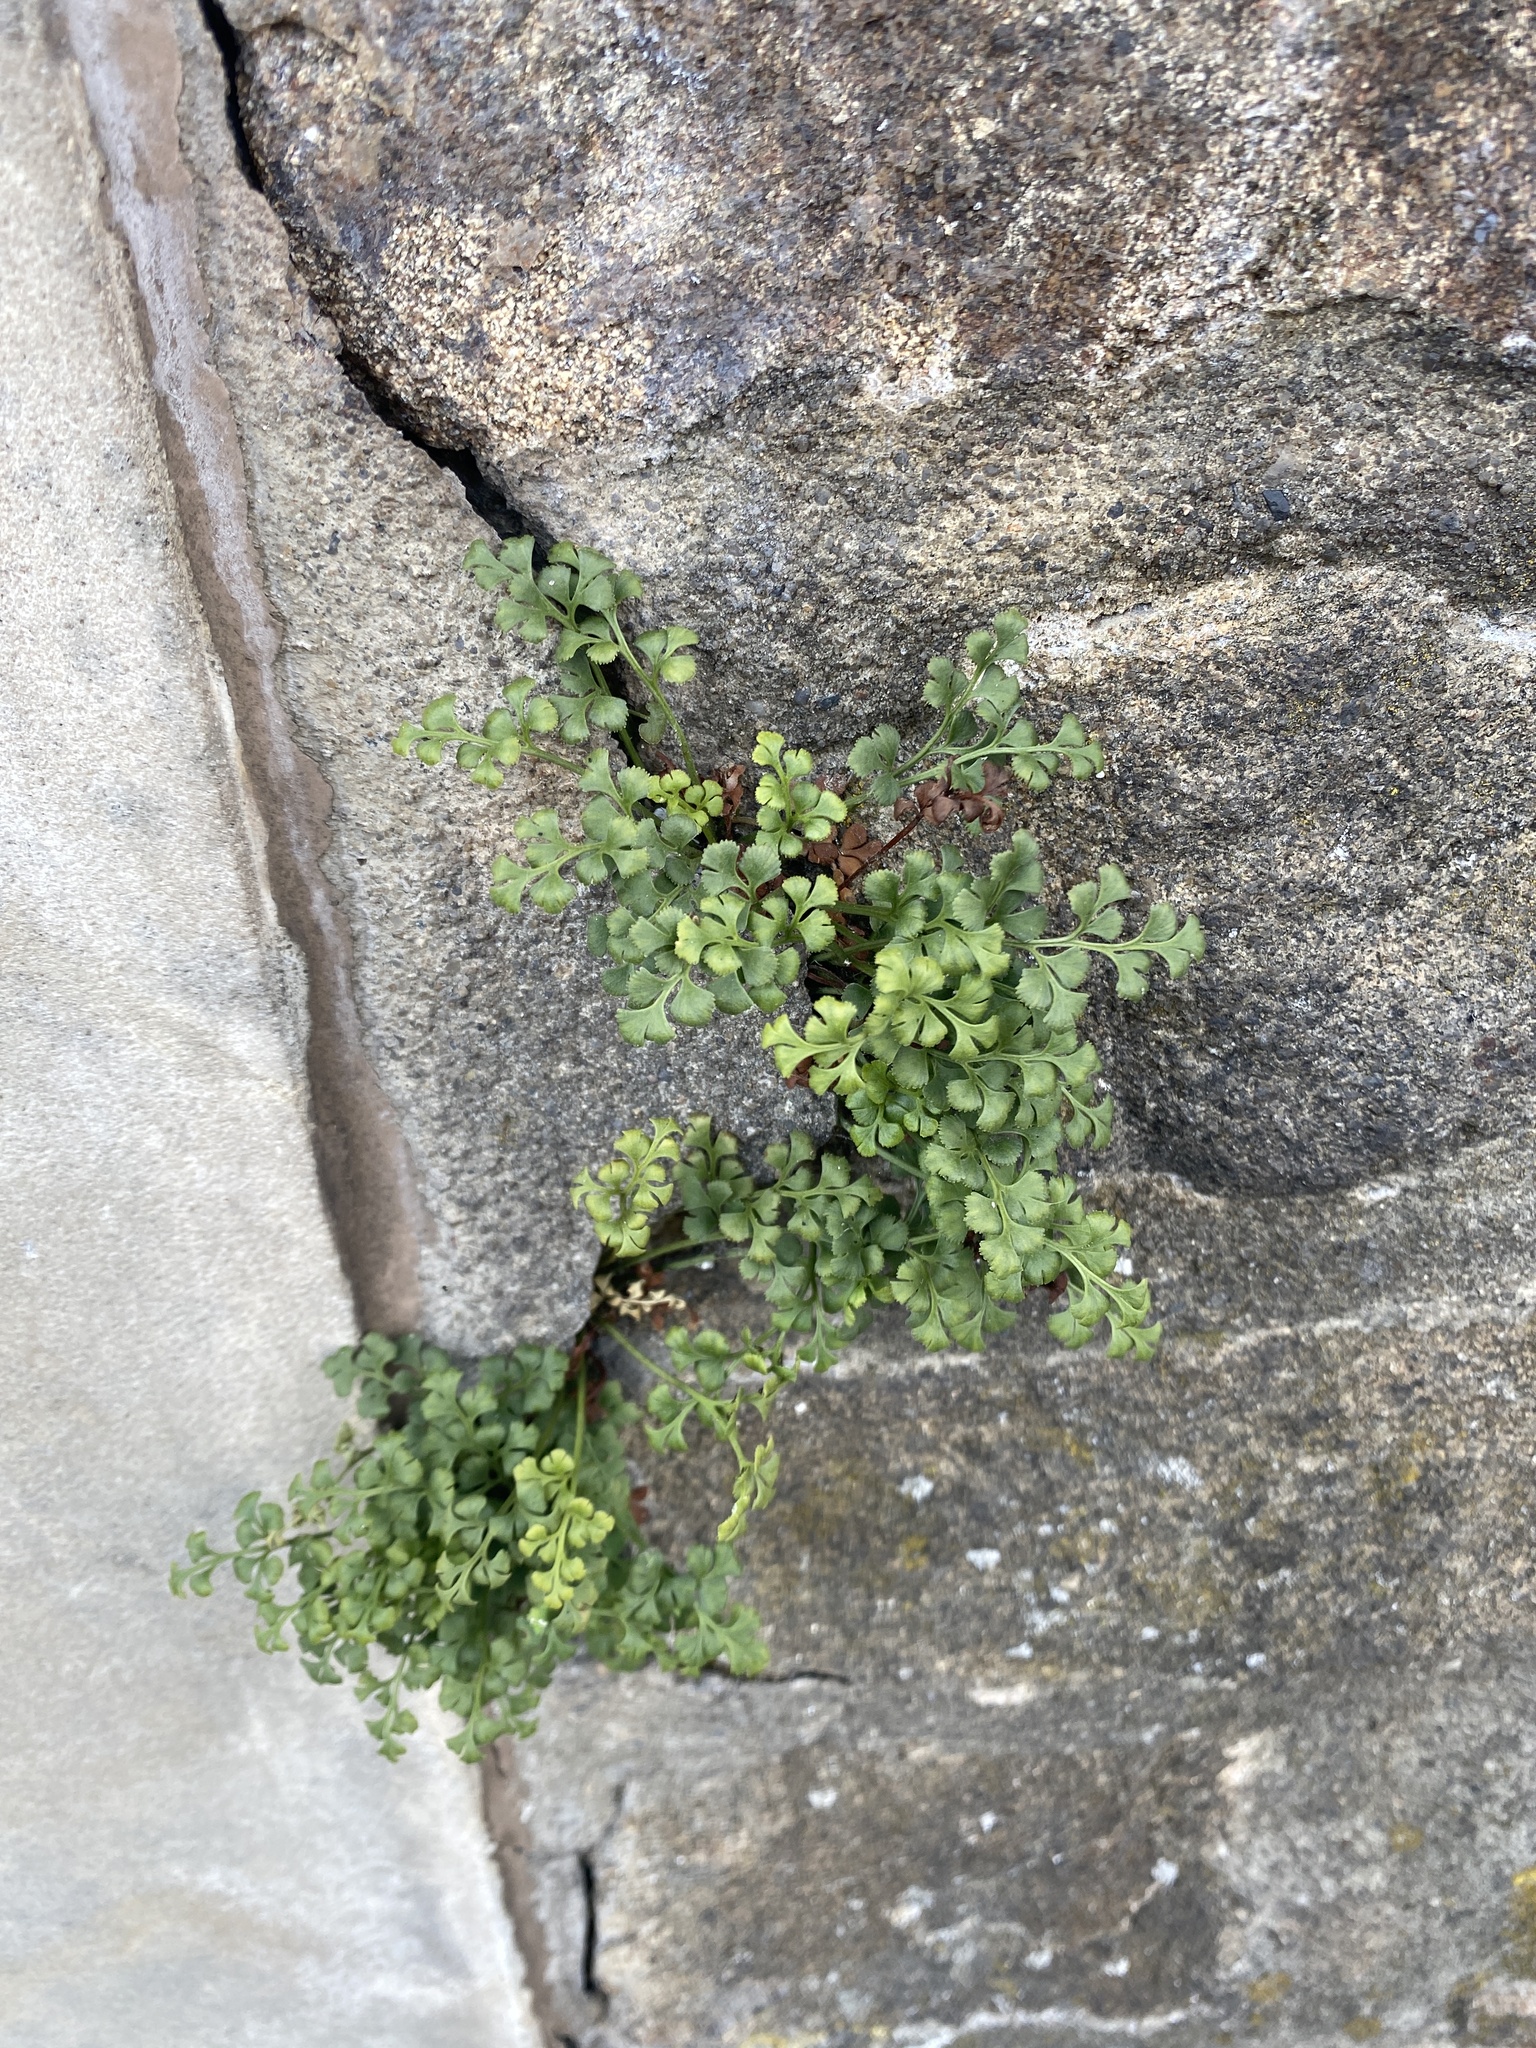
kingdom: Plantae
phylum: Tracheophyta
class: Polypodiopsida
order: Polypodiales
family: Aspleniaceae
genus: Asplenium
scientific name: Asplenium ruta-muraria
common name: Wall-rue
